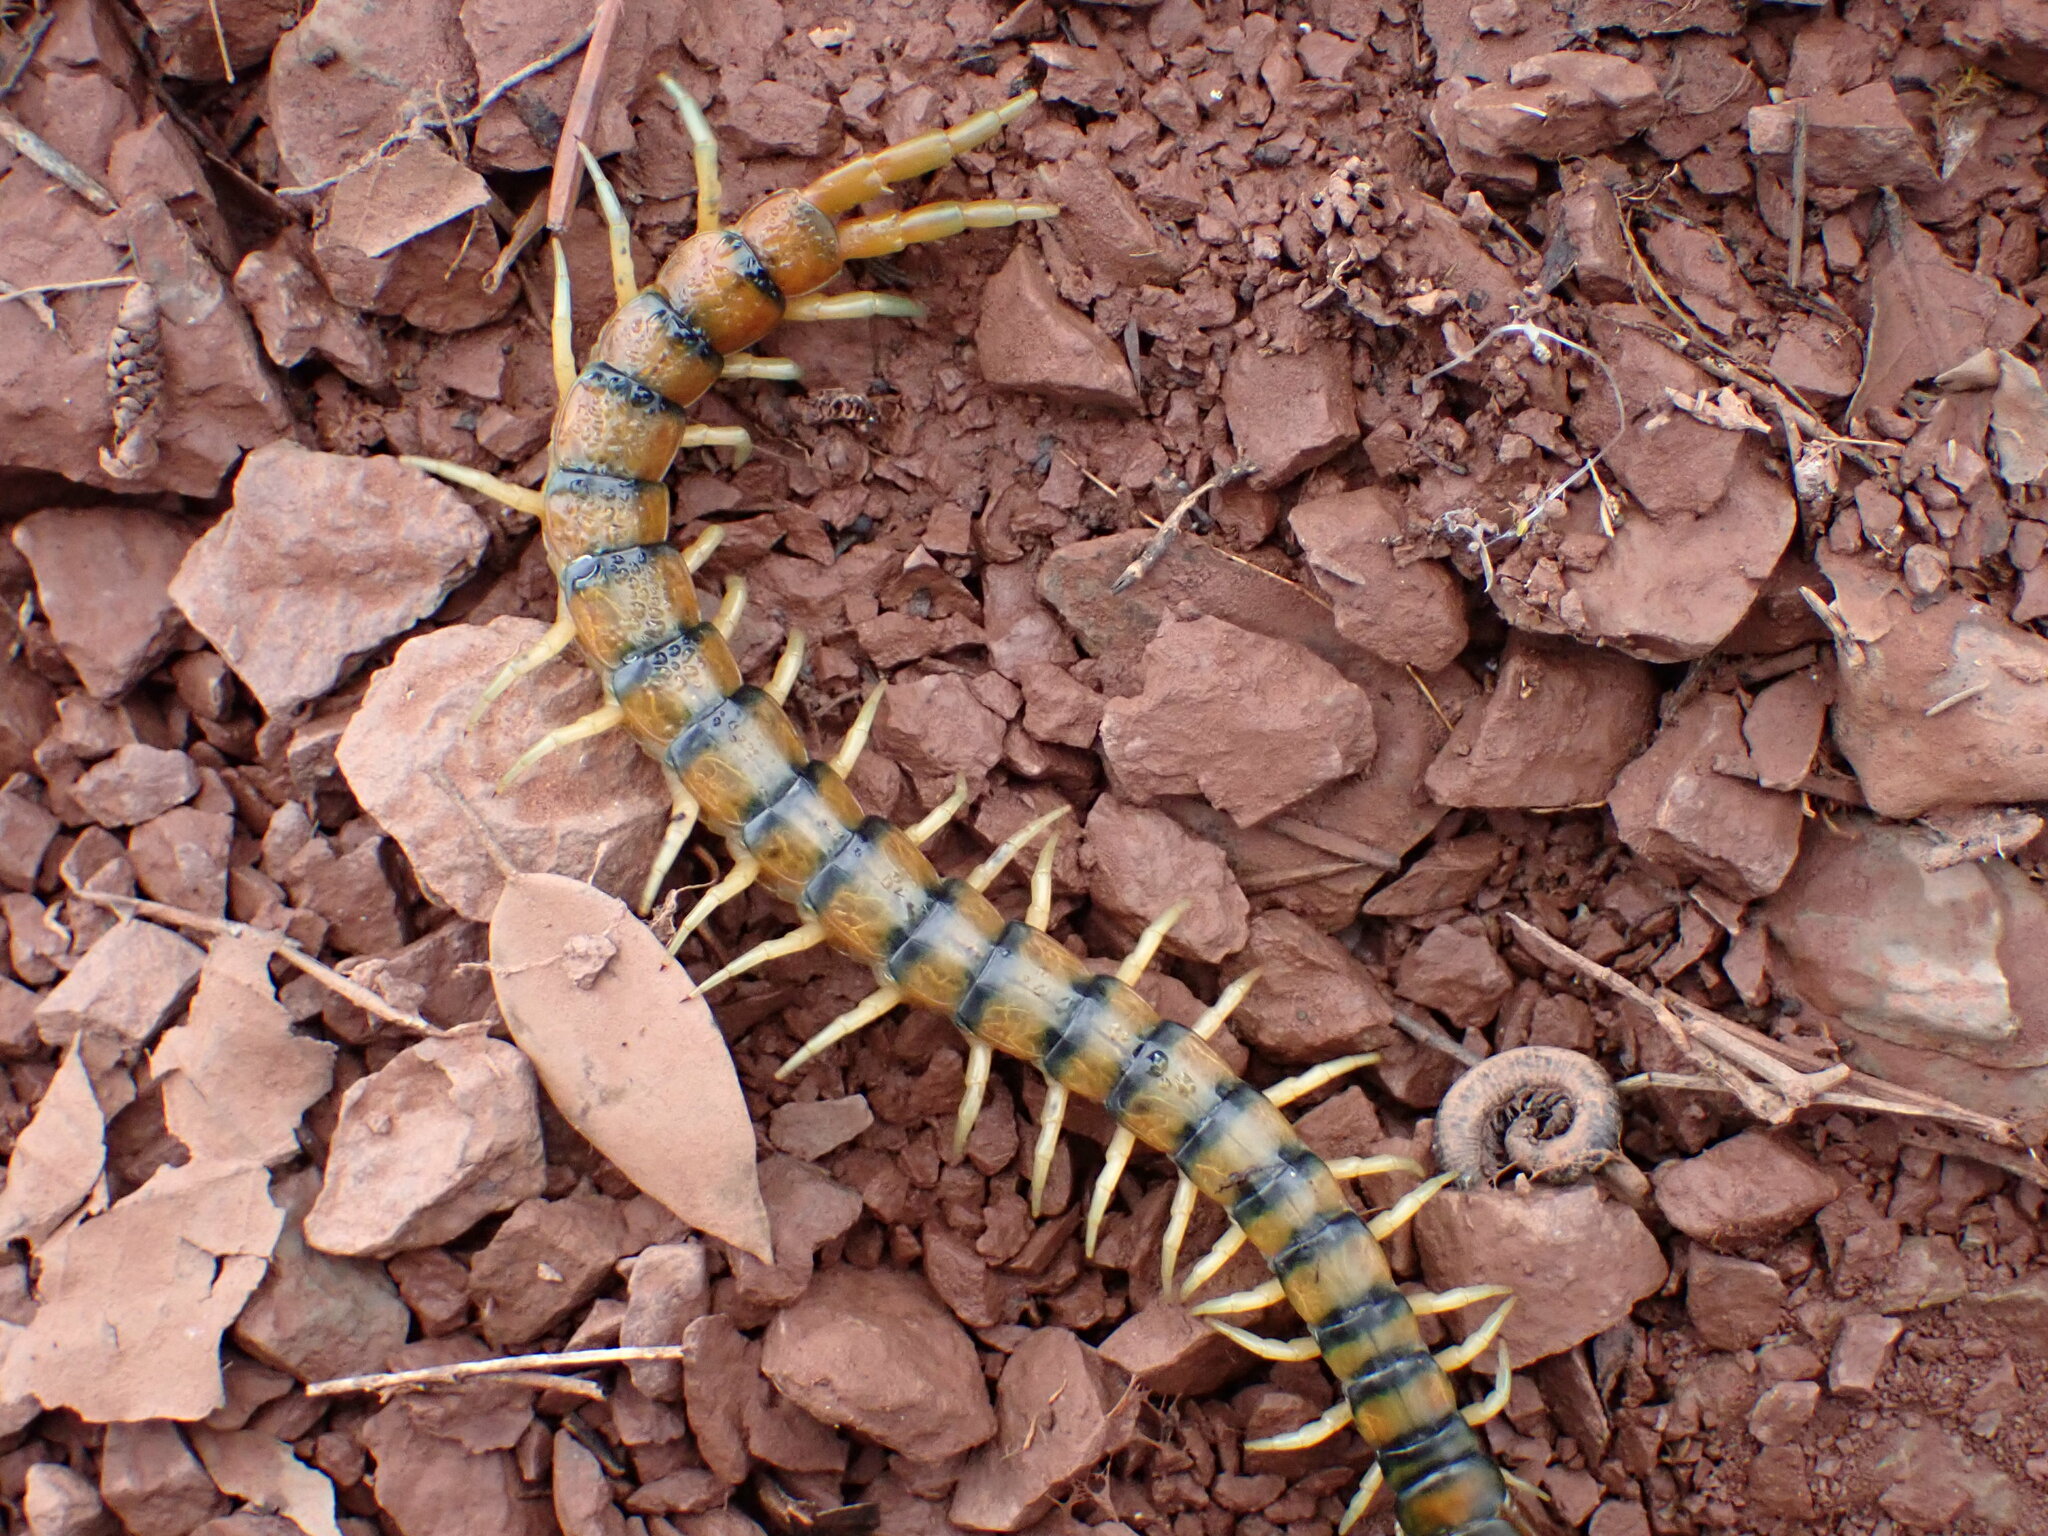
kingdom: Animalia
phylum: Arthropoda
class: Chilopoda
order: Scolopendromorpha
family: Scolopendridae
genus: Scolopendra
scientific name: Scolopendra cingulata
